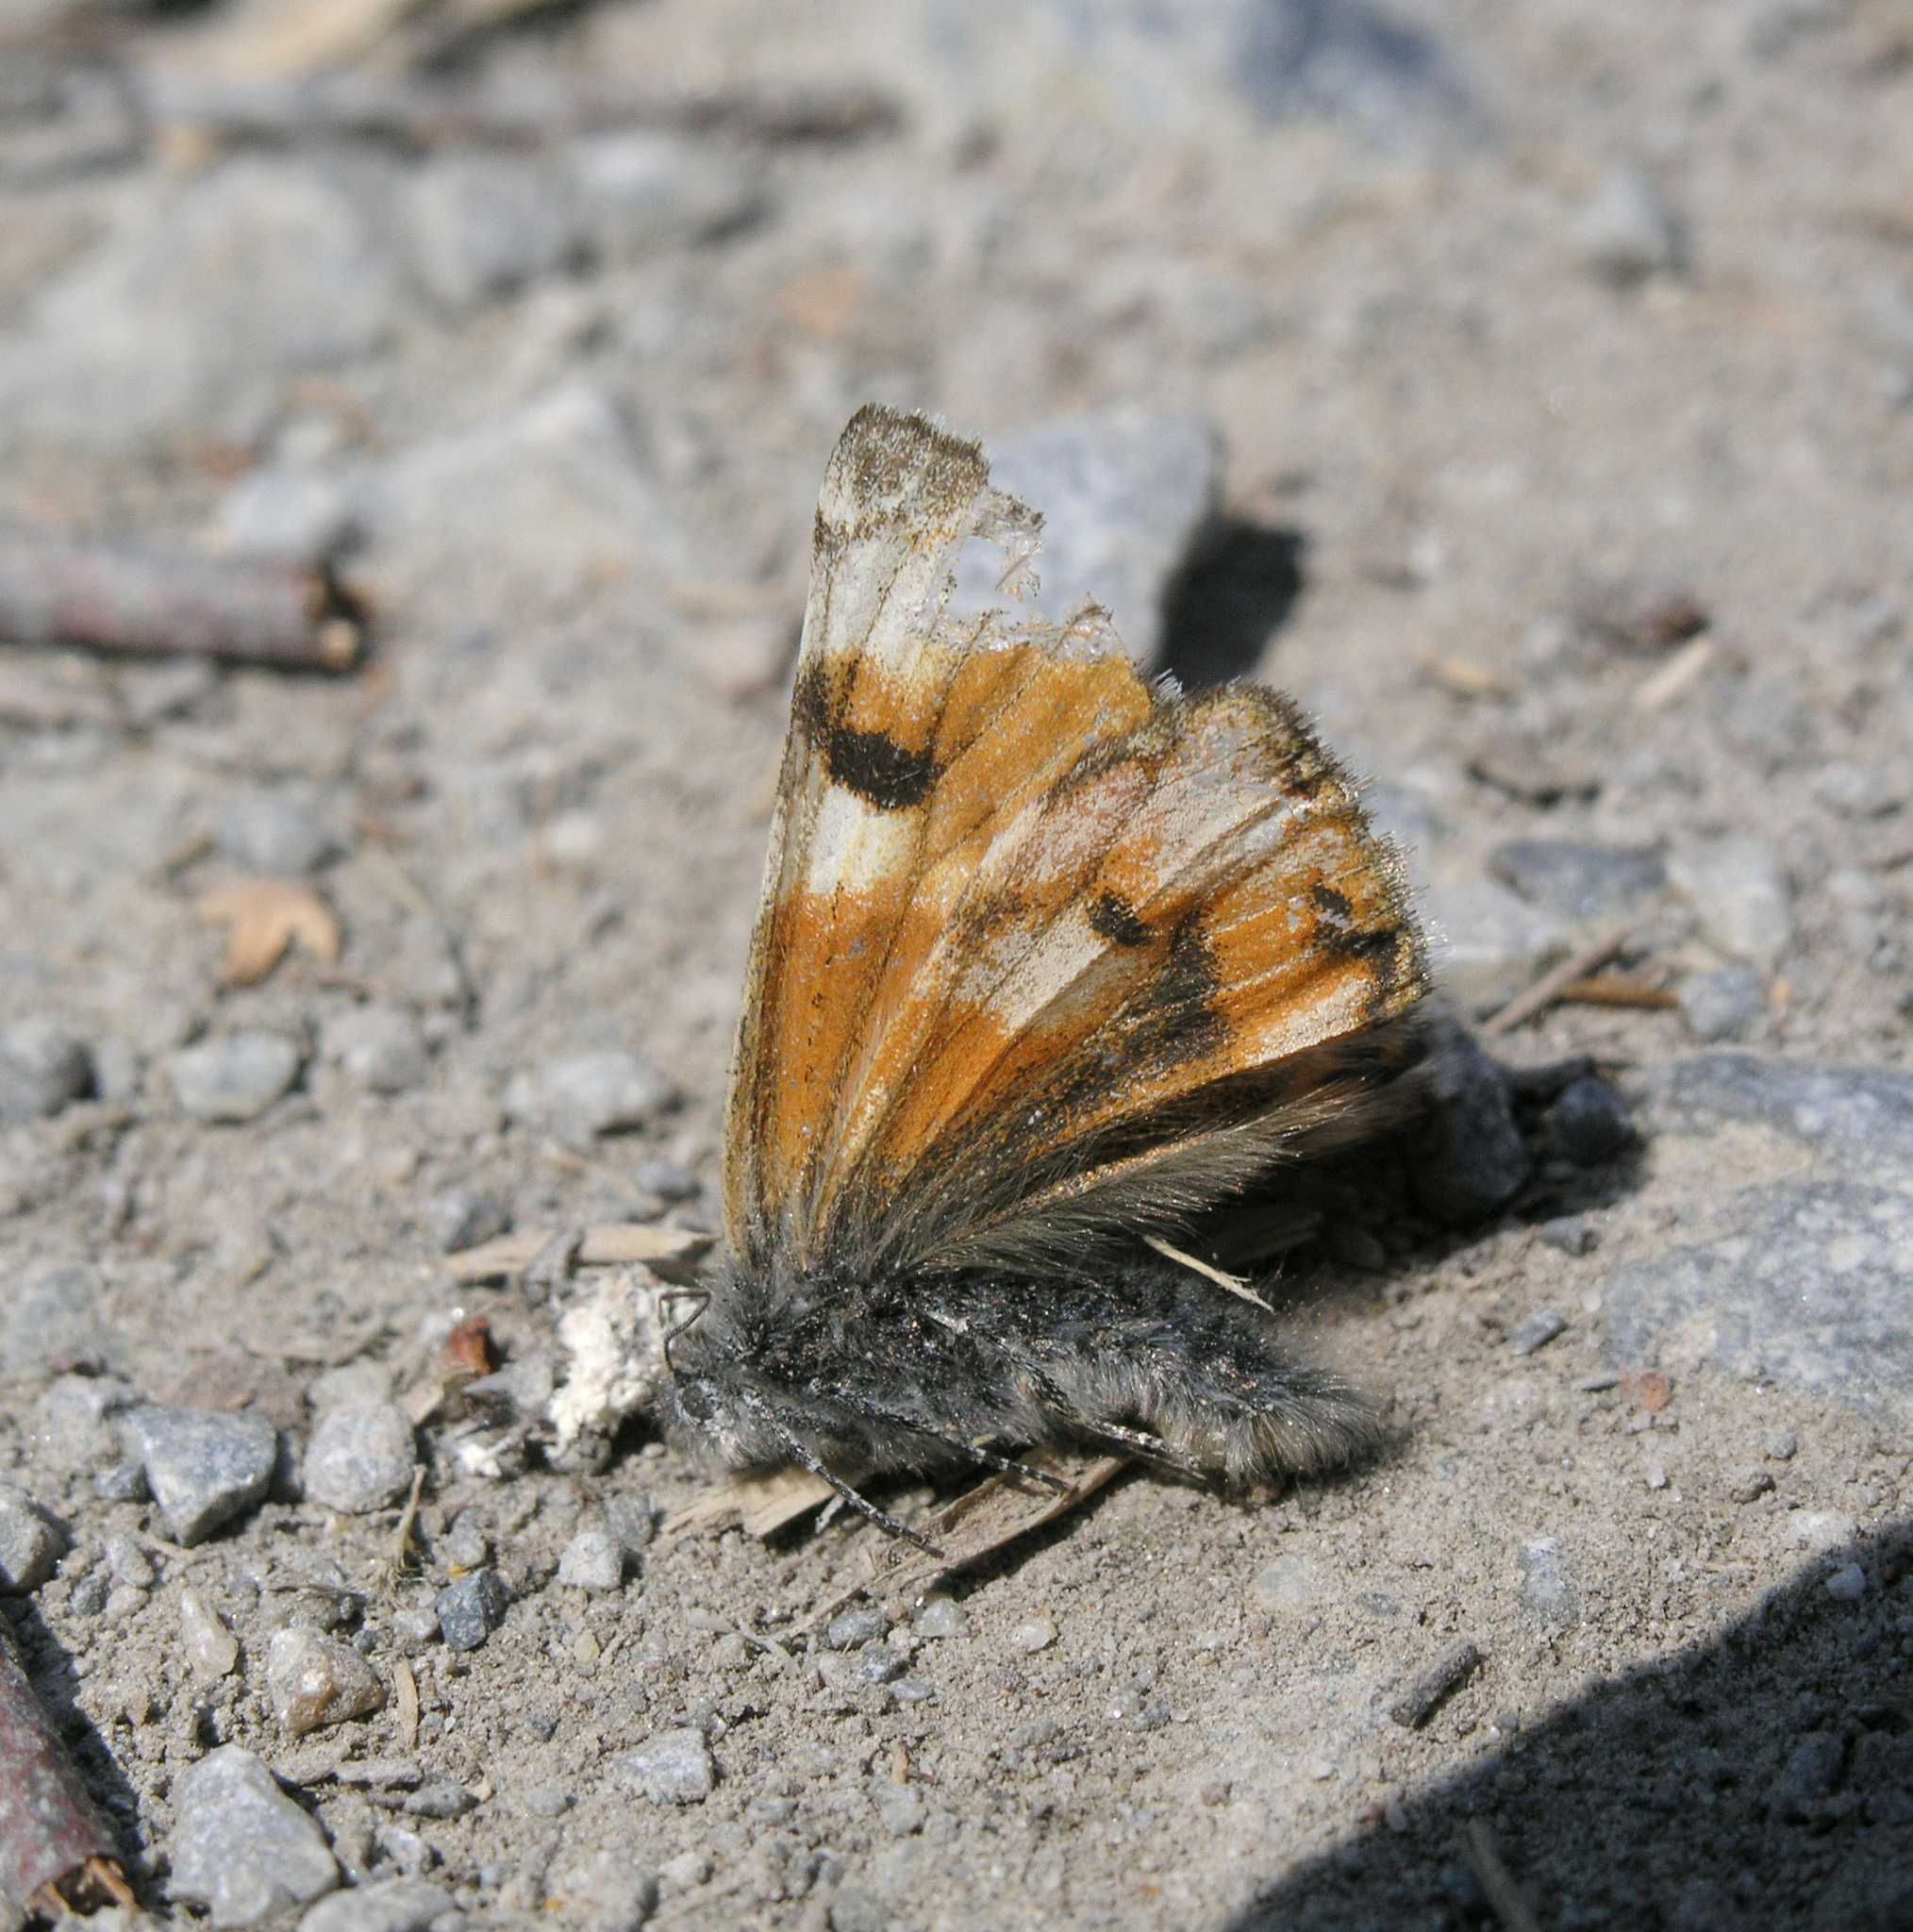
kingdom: Animalia
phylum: Arthropoda
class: Insecta
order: Lepidoptera
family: Geometridae
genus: Archiearis
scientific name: Archiearis parthenias
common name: Orange underwing
